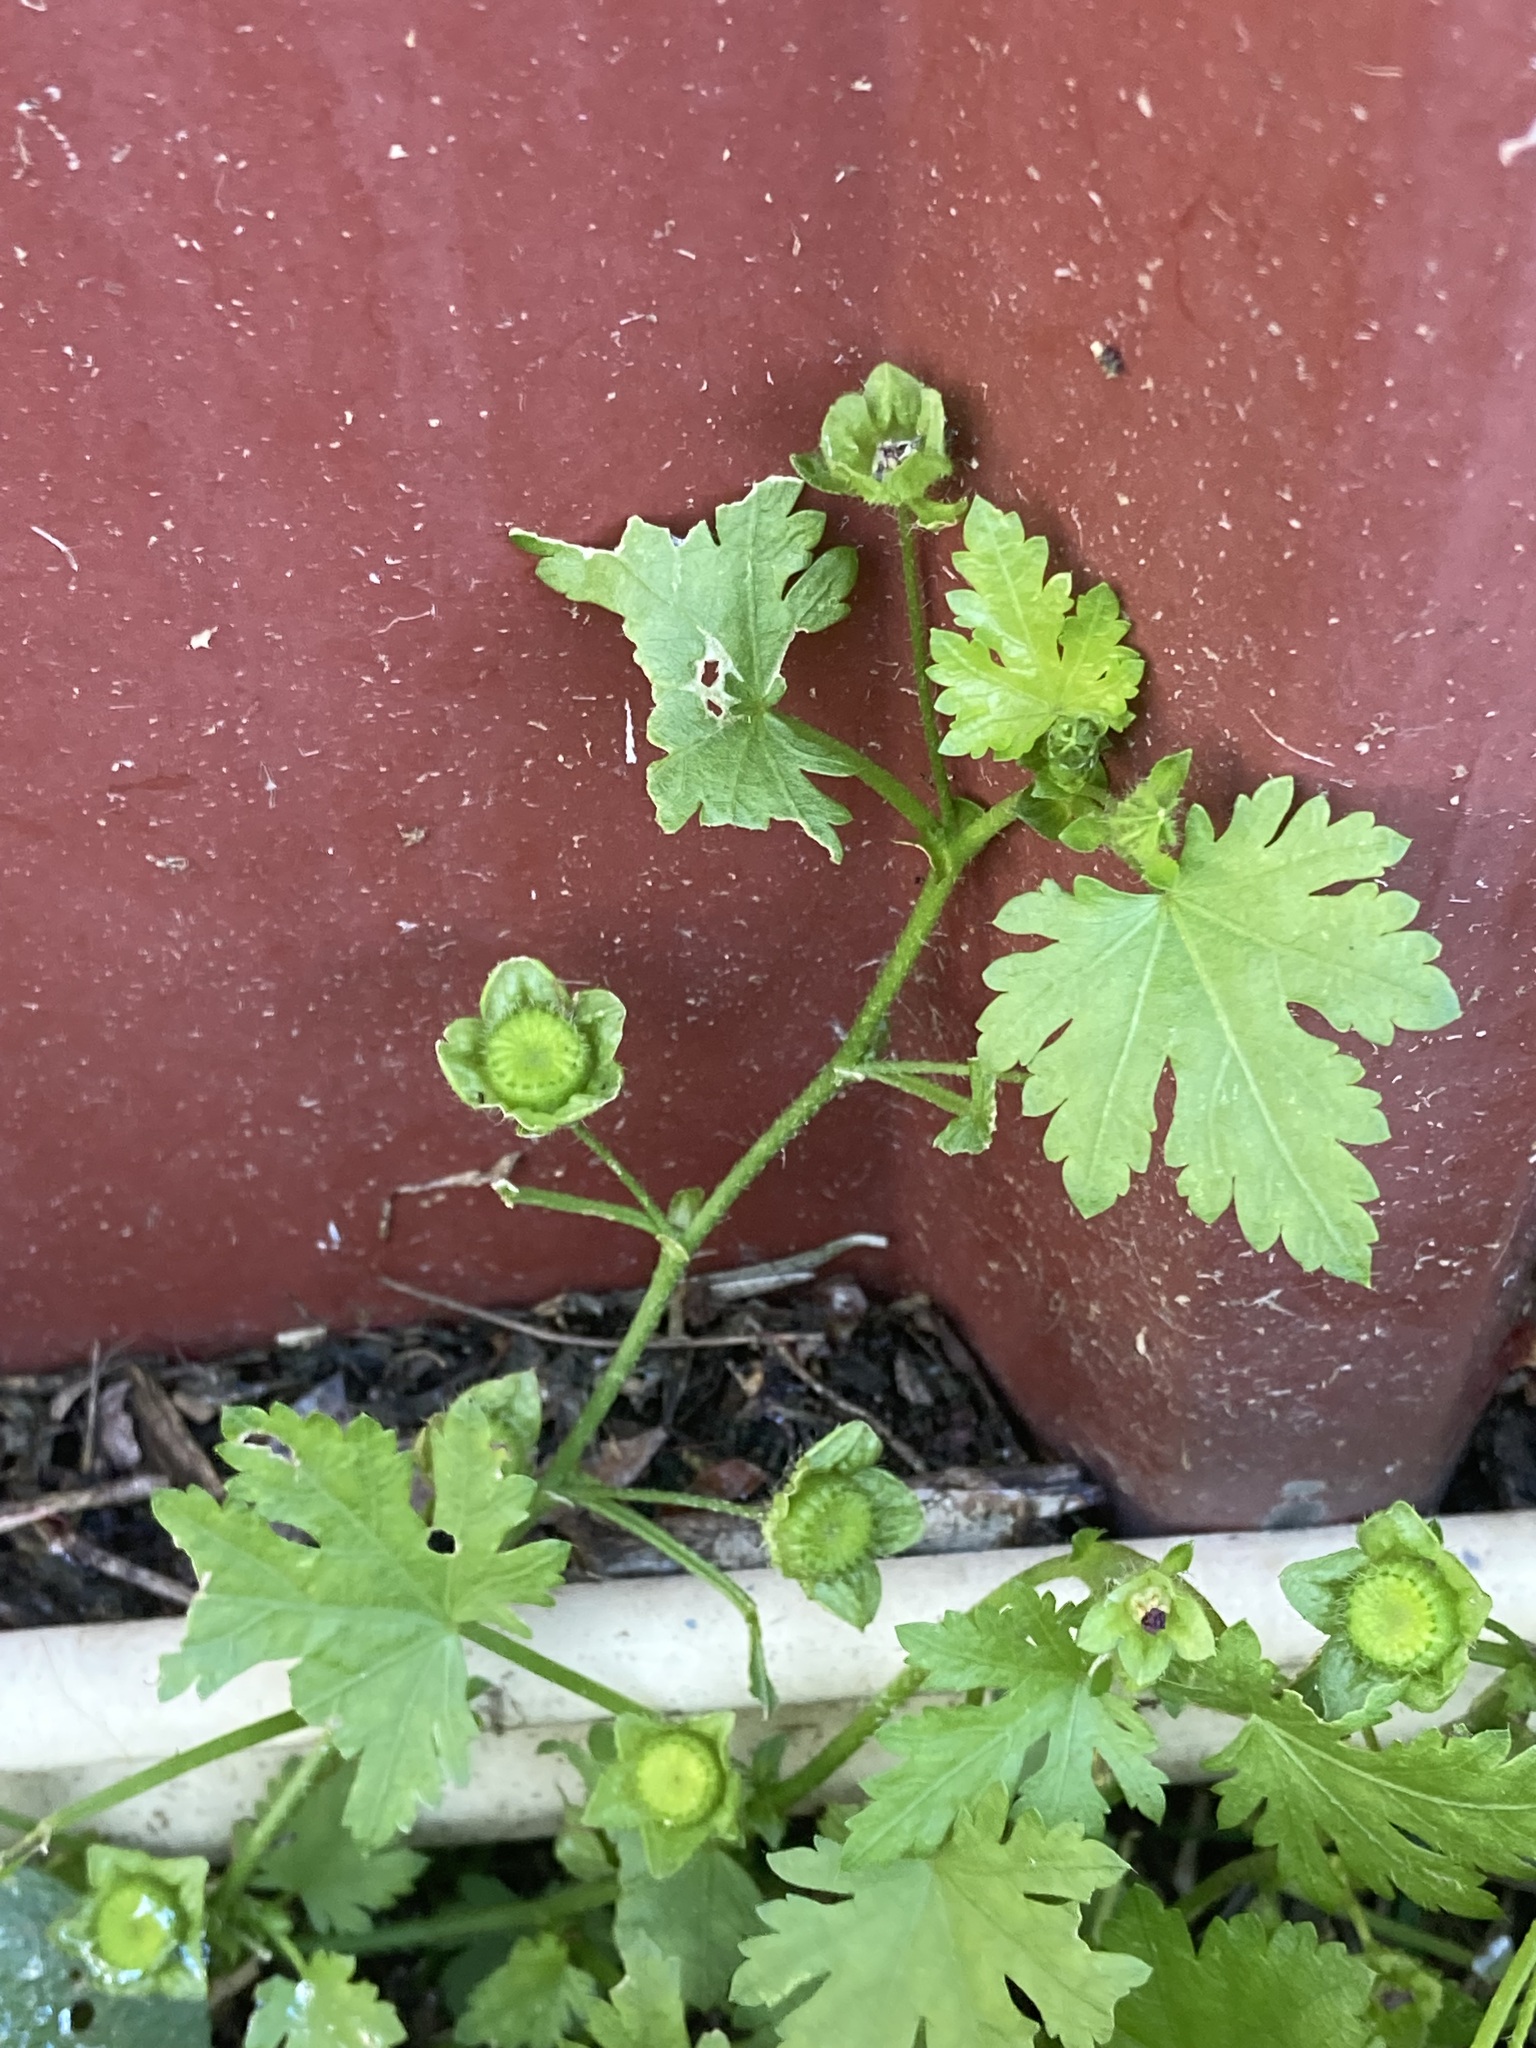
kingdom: Plantae
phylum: Tracheophyta
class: Magnoliopsida
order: Malvales
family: Malvaceae
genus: Modiola
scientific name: Modiola caroliniana
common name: Carolina bristlemallow
